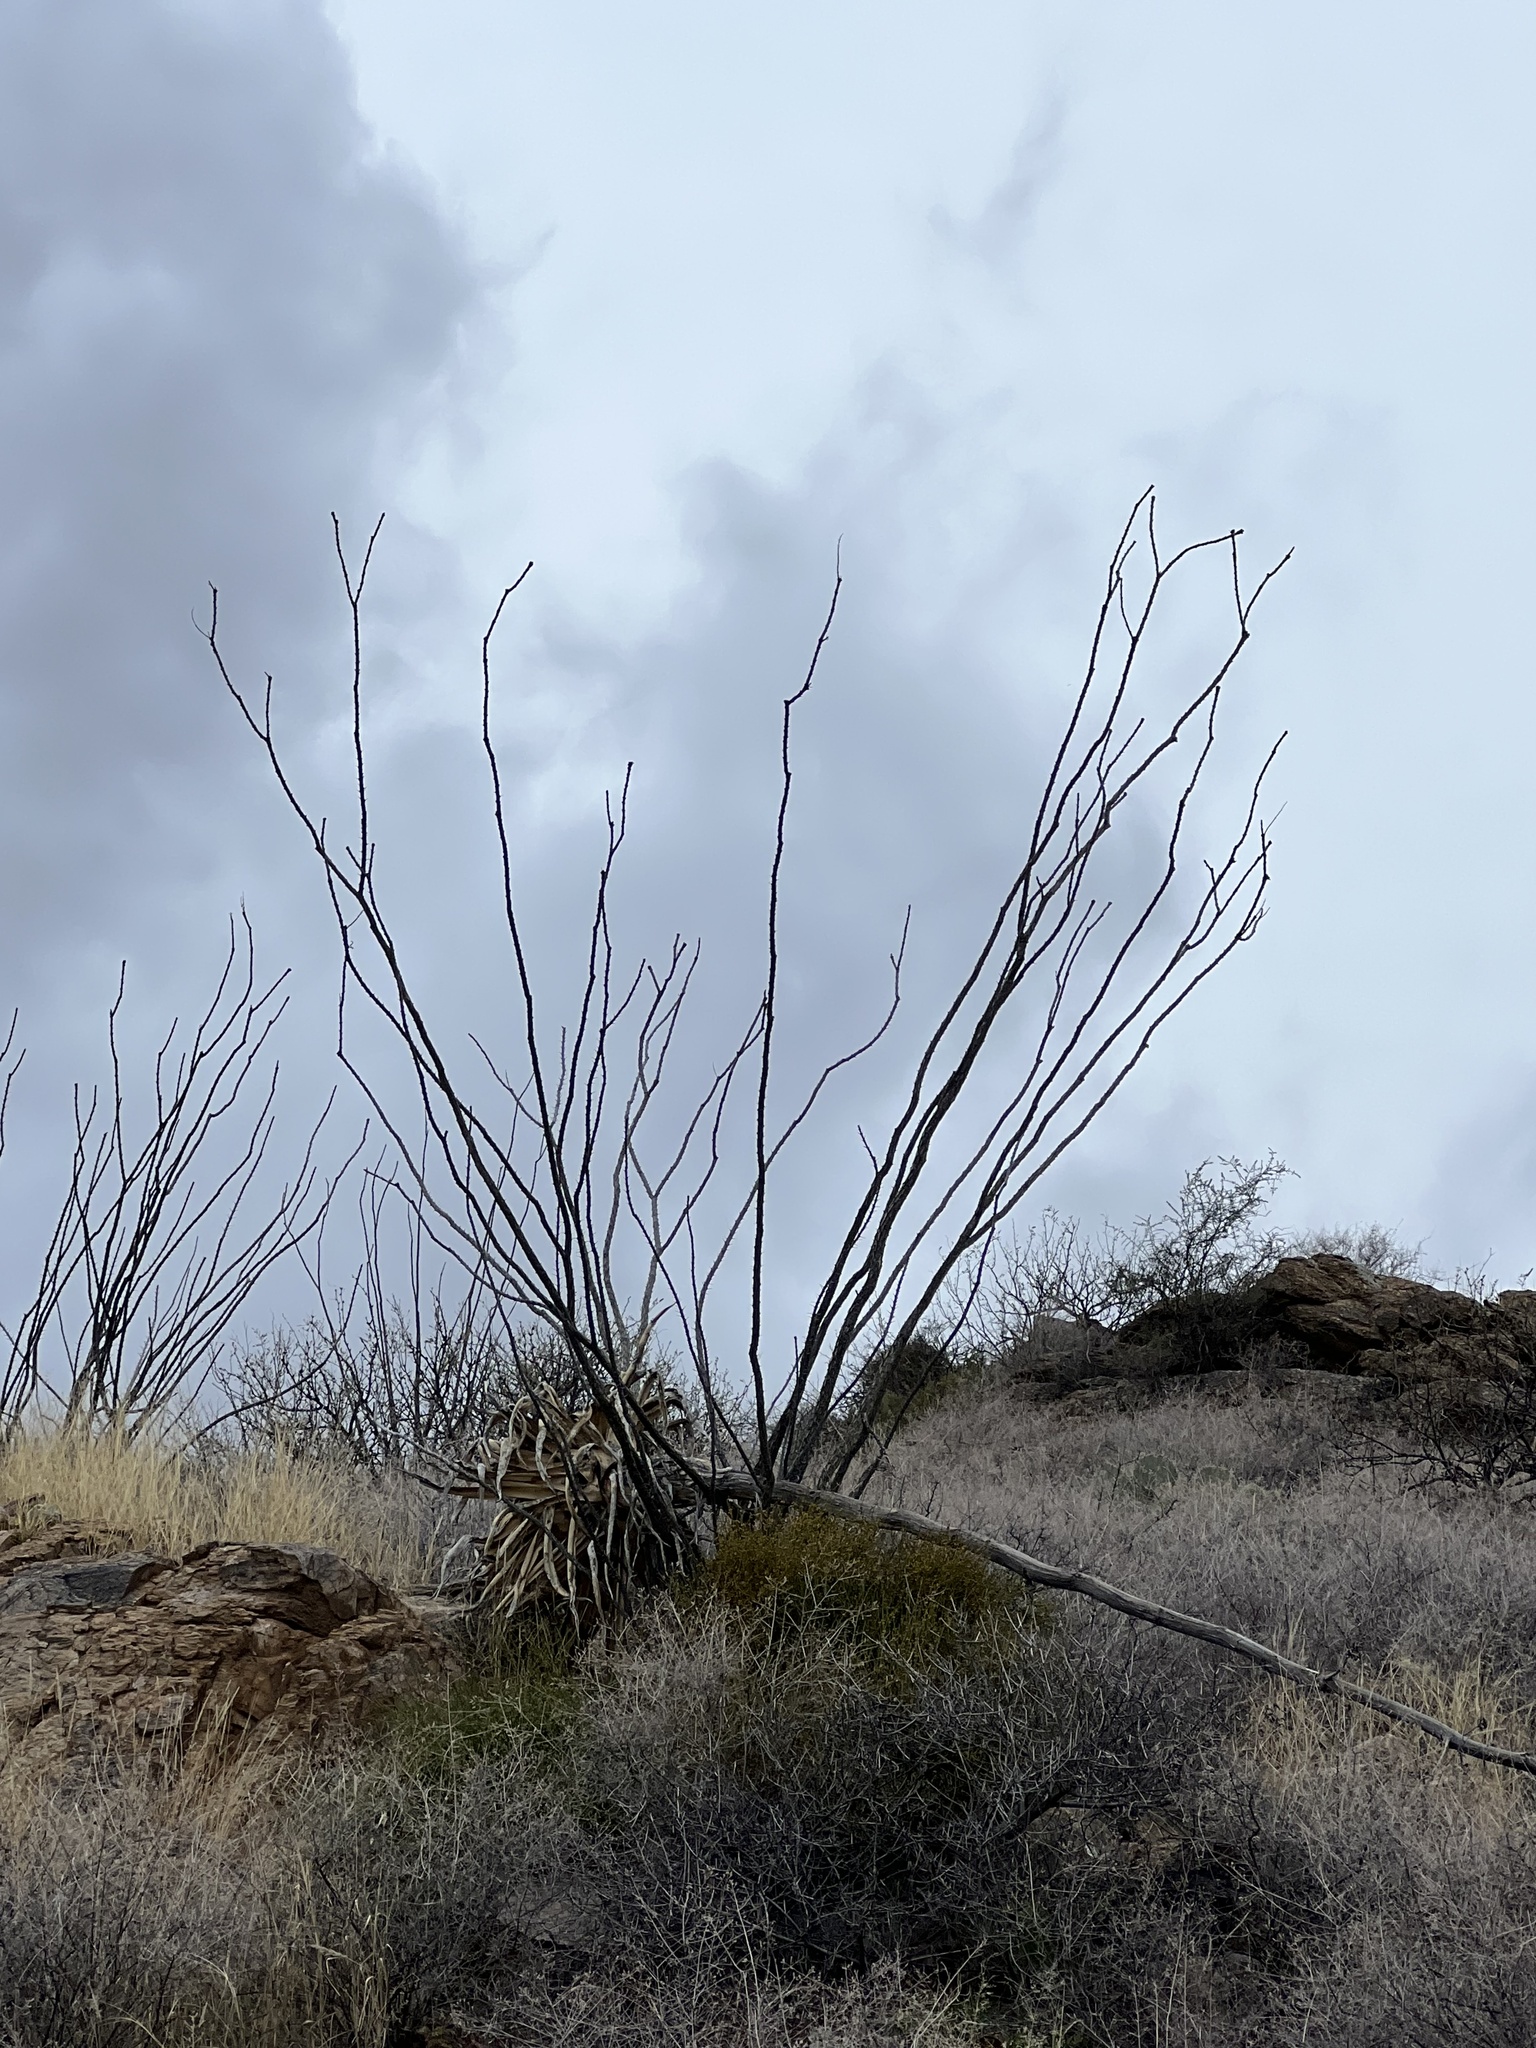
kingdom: Plantae
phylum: Tracheophyta
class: Magnoliopsida
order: Ericales
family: Fouquieriaceae
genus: Fouquieria
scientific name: Fouquieria splendens
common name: Vine-cactus
